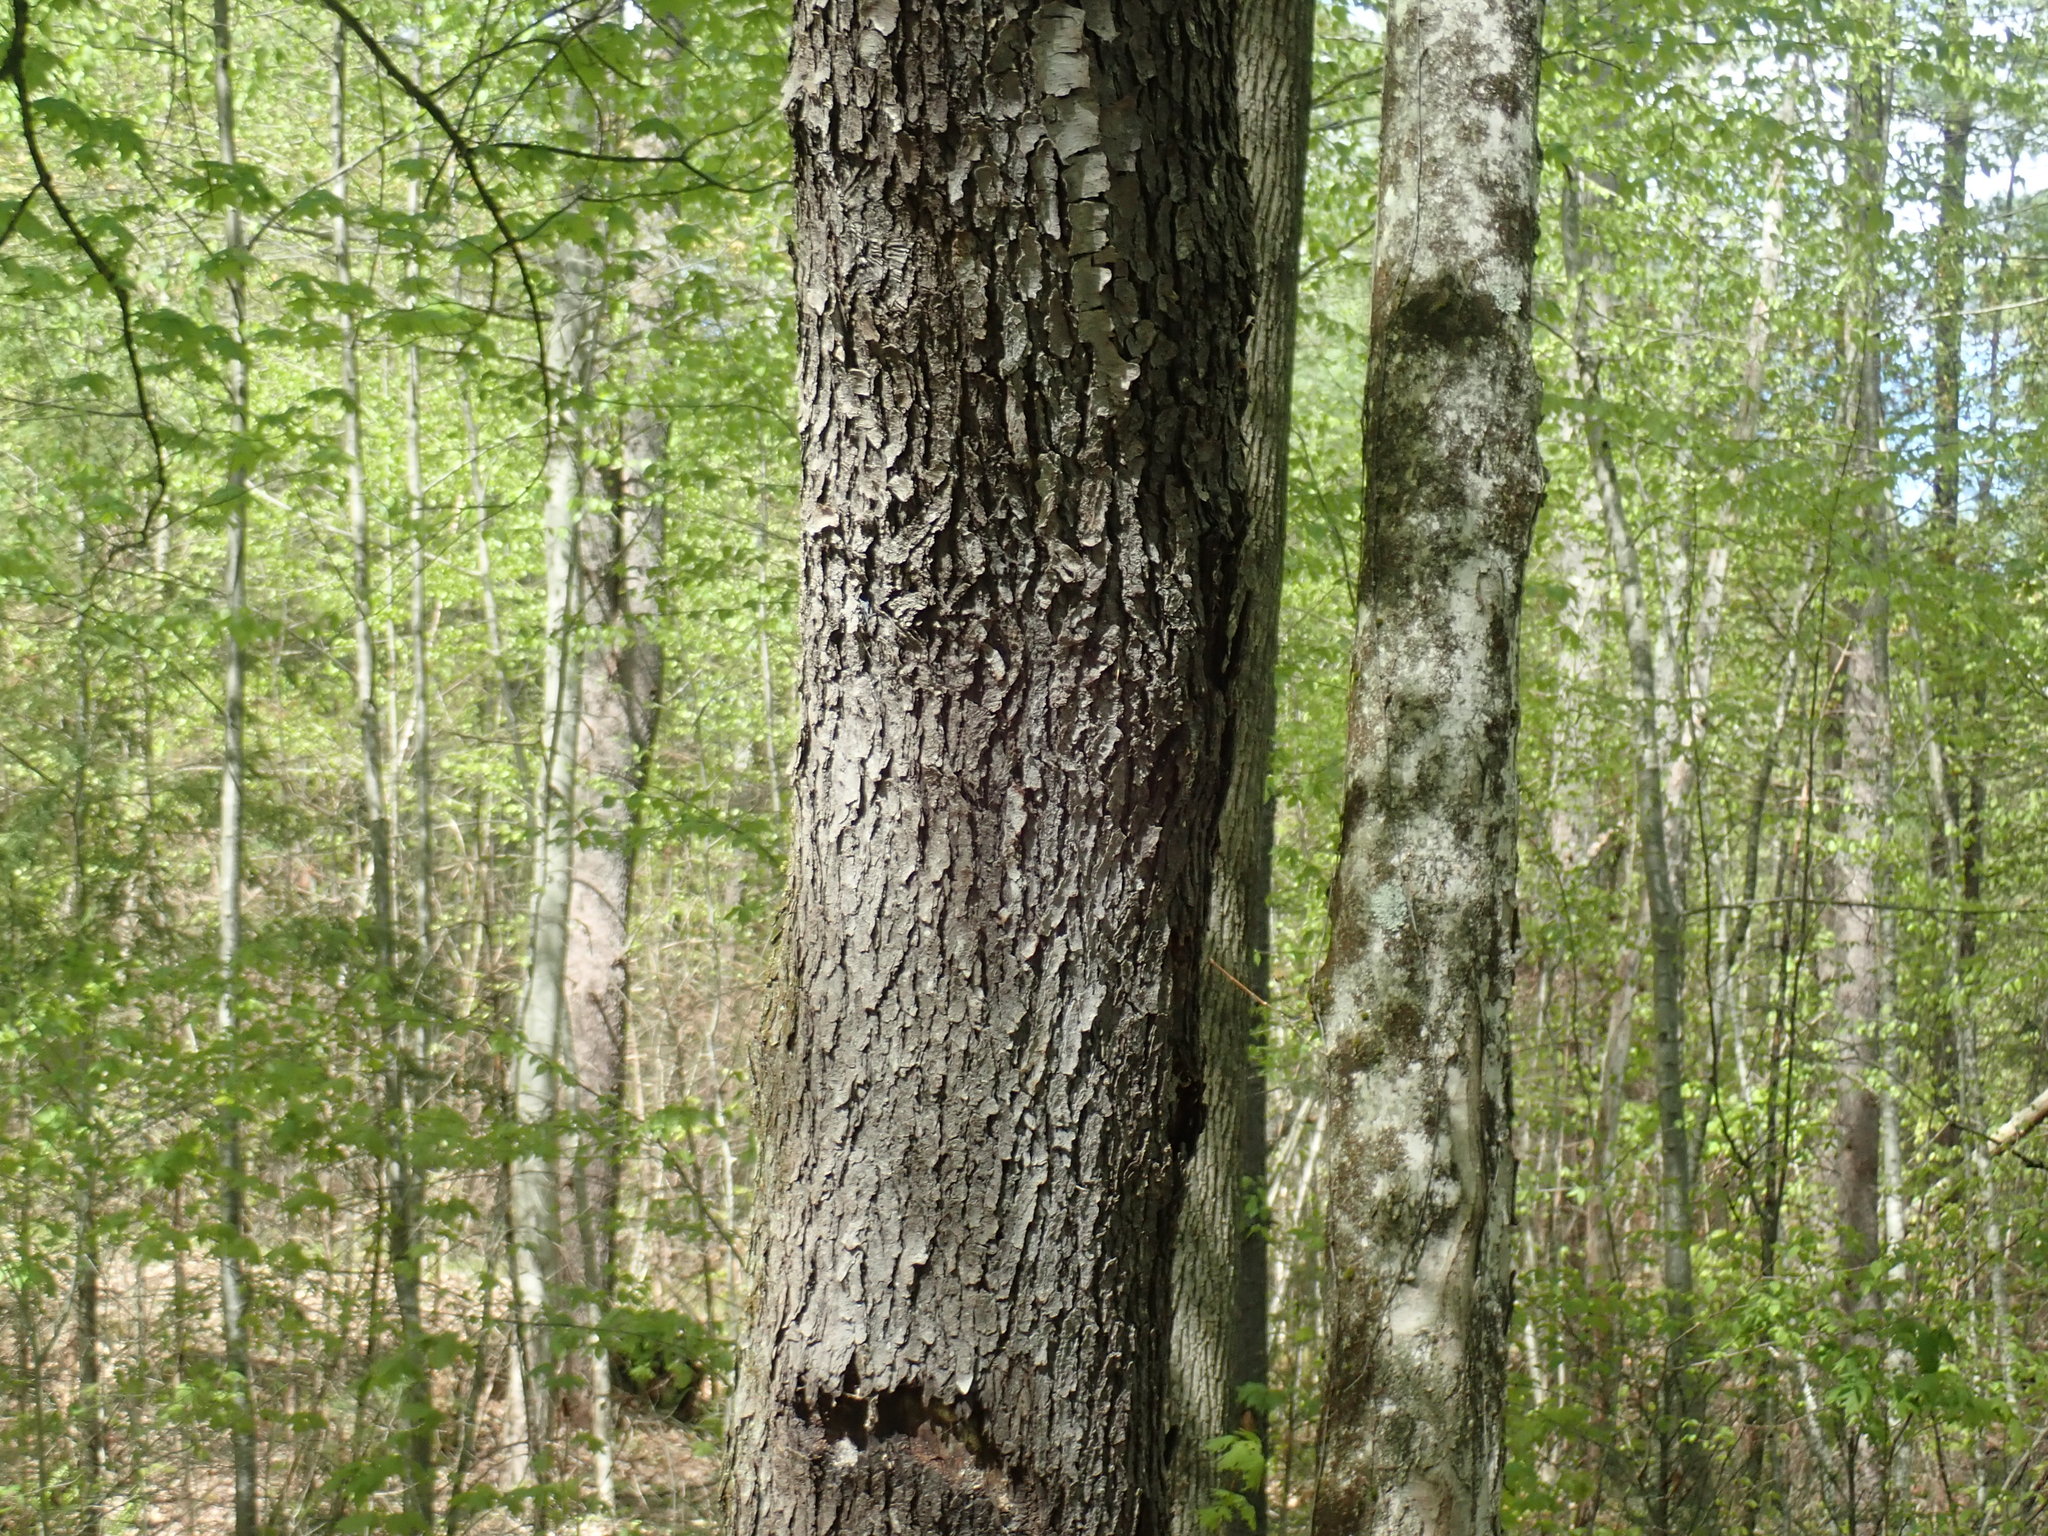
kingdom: Plantae
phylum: Tracheophyta
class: Magnoliopsida
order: Rosales
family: Rosaceae
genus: Prunus
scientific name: Prunus serotina
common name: Black cherry
